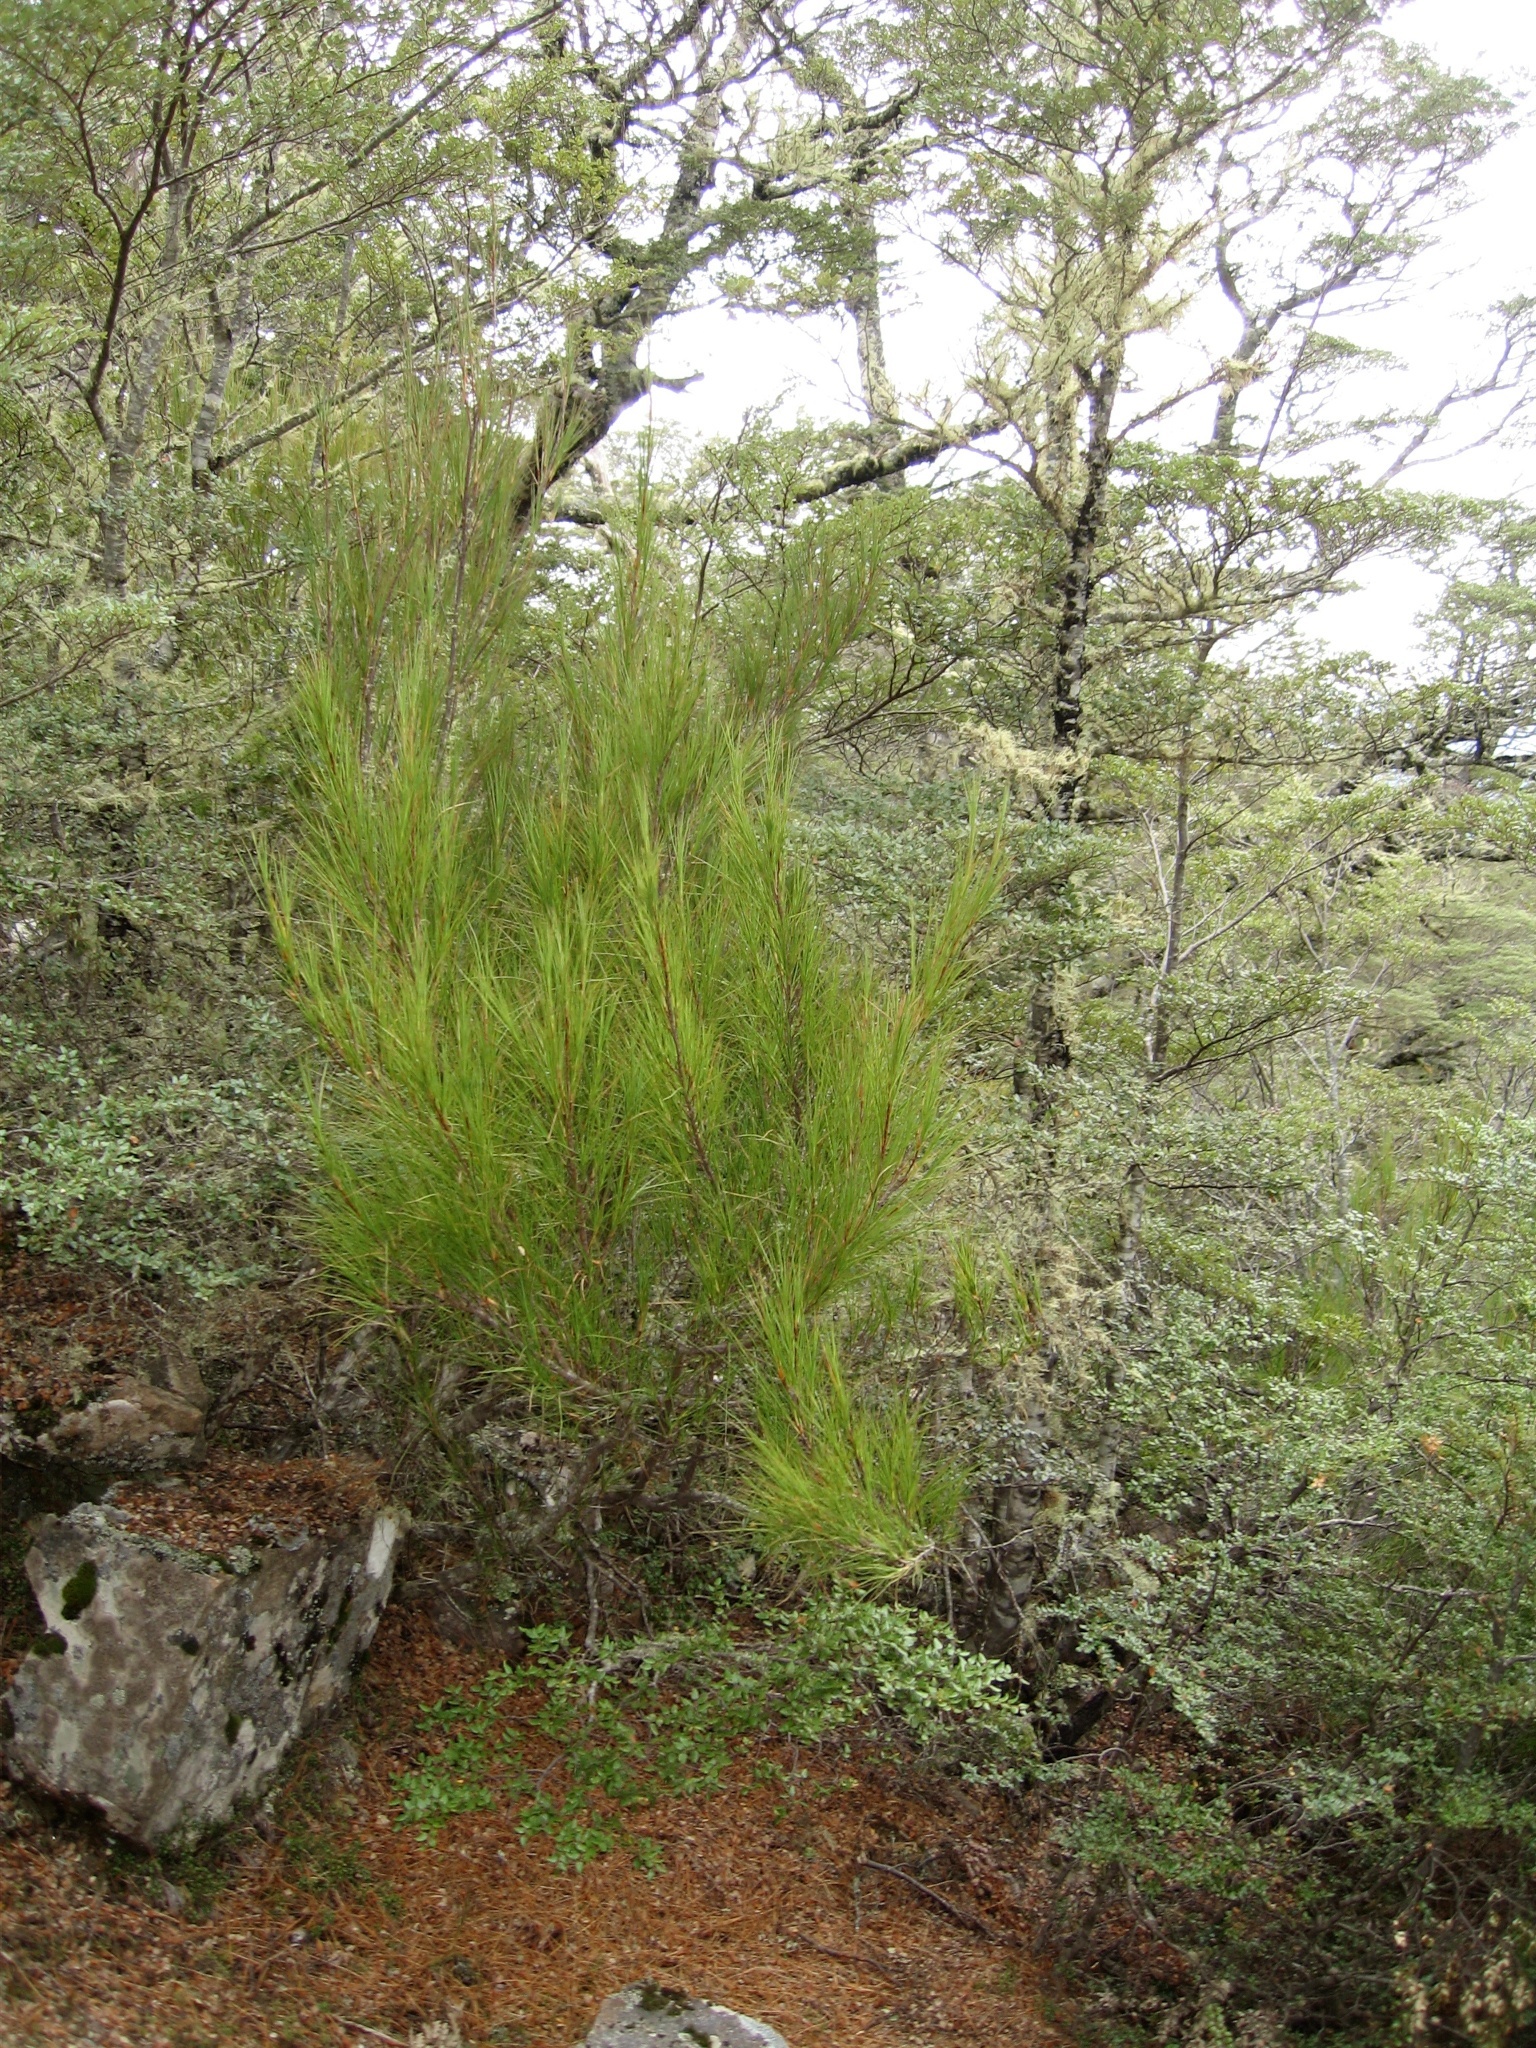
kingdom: Plantae
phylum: Tracheophyta
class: Magnoliopsida
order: Ericales
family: Ericaceae
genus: Dracophyllum
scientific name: Dracophyllum longifolium
